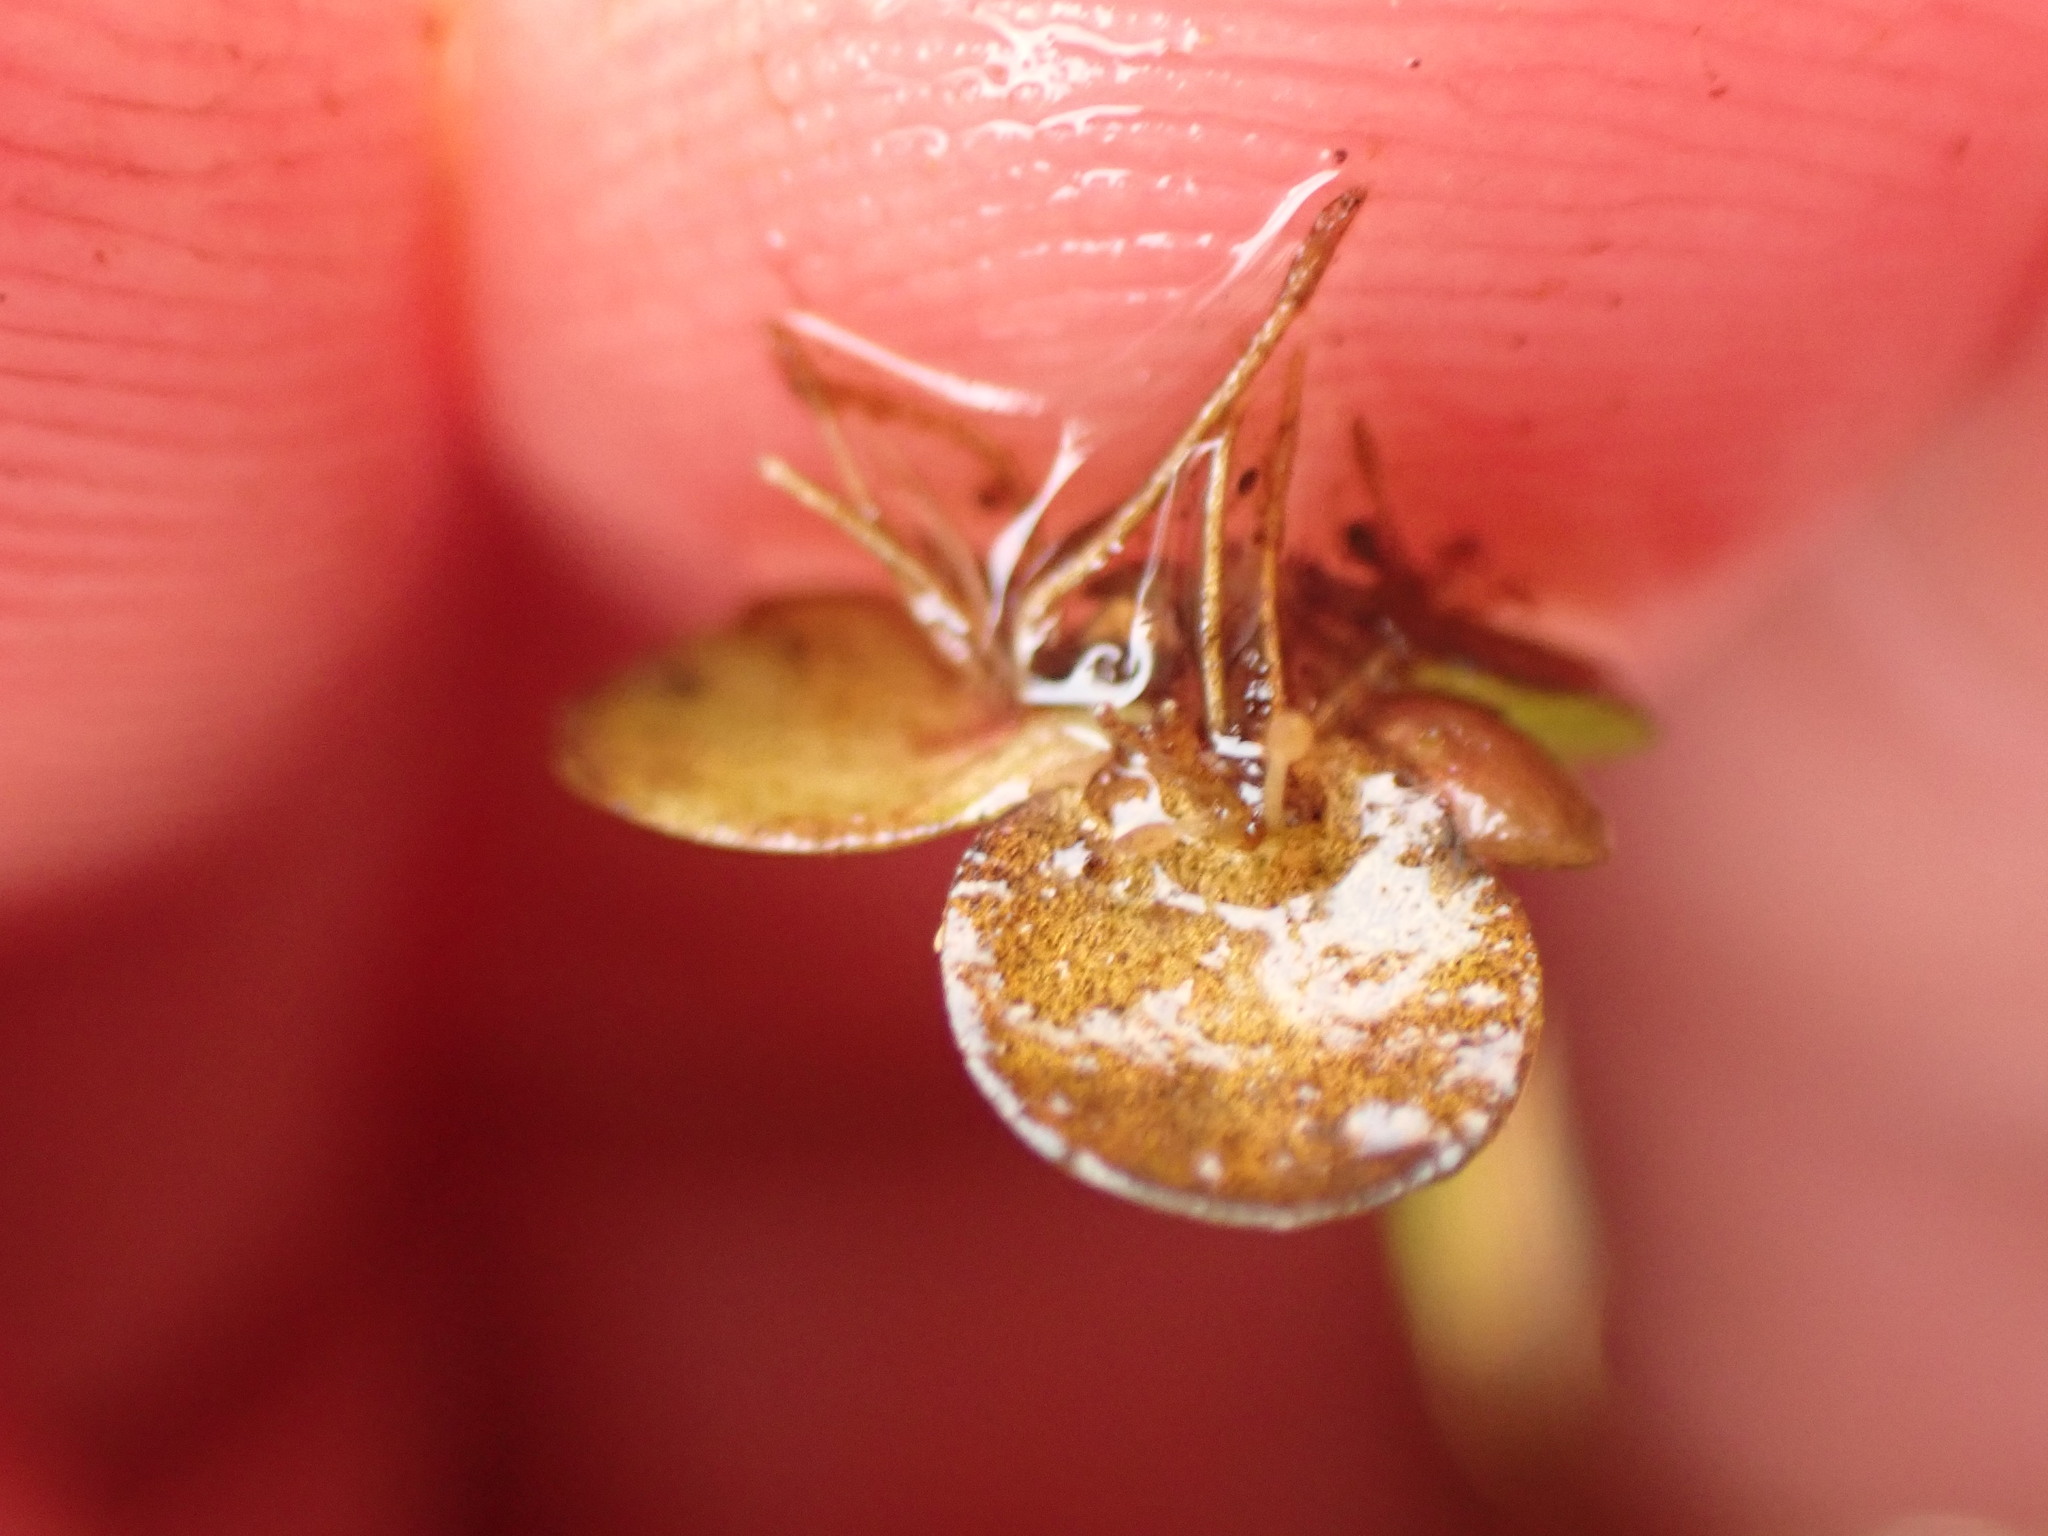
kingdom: Plantae
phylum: Tracheophyta
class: Liliopsida
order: Alismatales
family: Araceae
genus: Spirodela
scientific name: Spirodela polyrhiza
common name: Great duckweed
